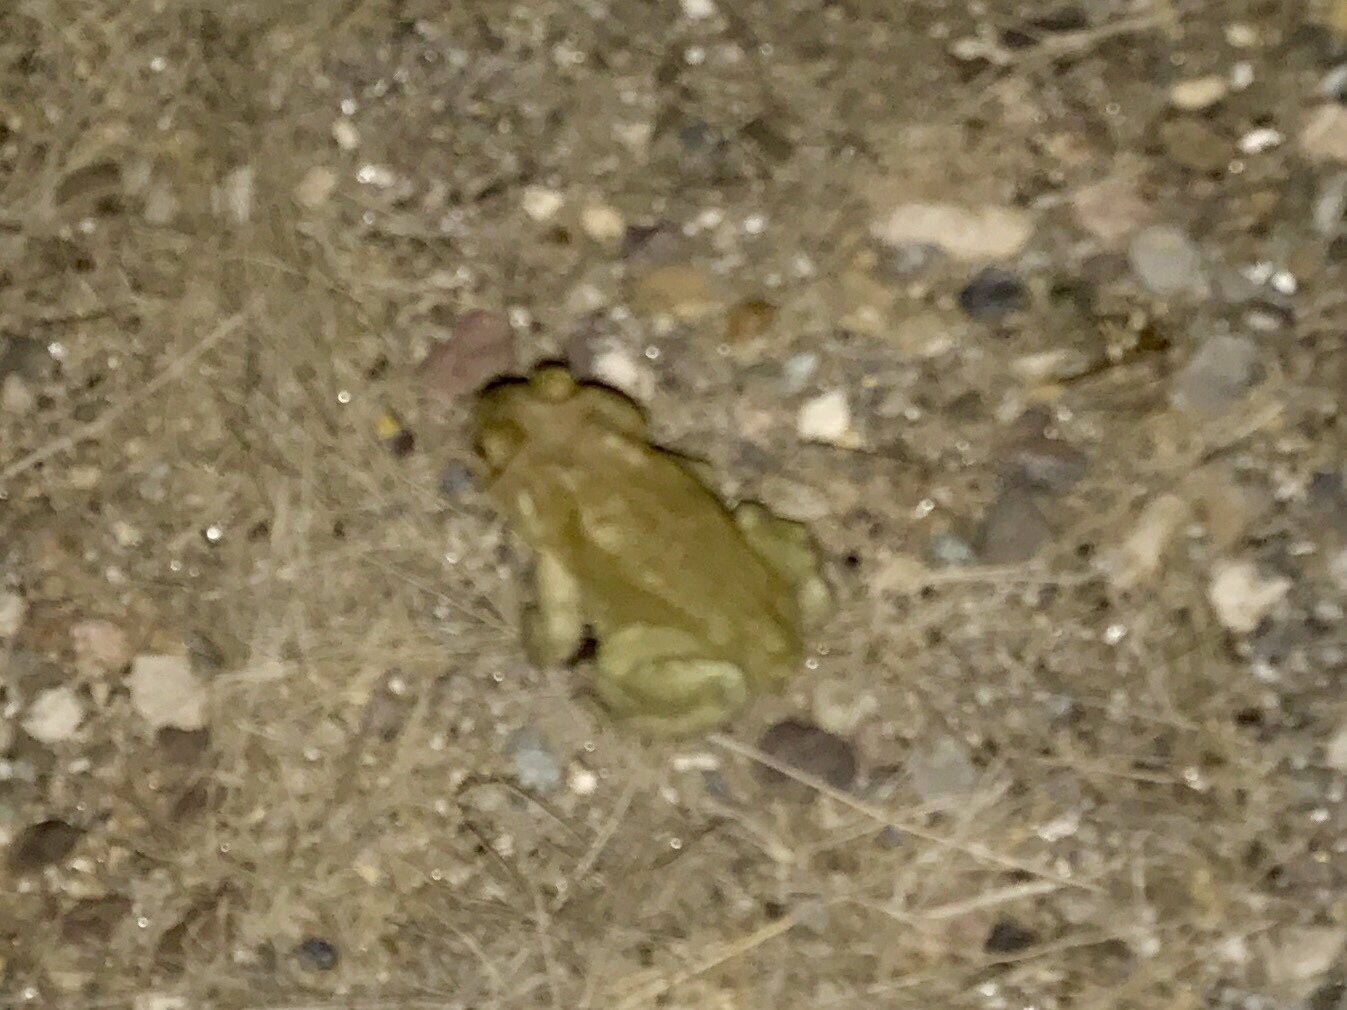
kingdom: Animalia
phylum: Chordata
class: Amphibia
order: Anura
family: Bufonidae
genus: Incilius
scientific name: Incilius alvarius
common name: Sonoran desert toad
